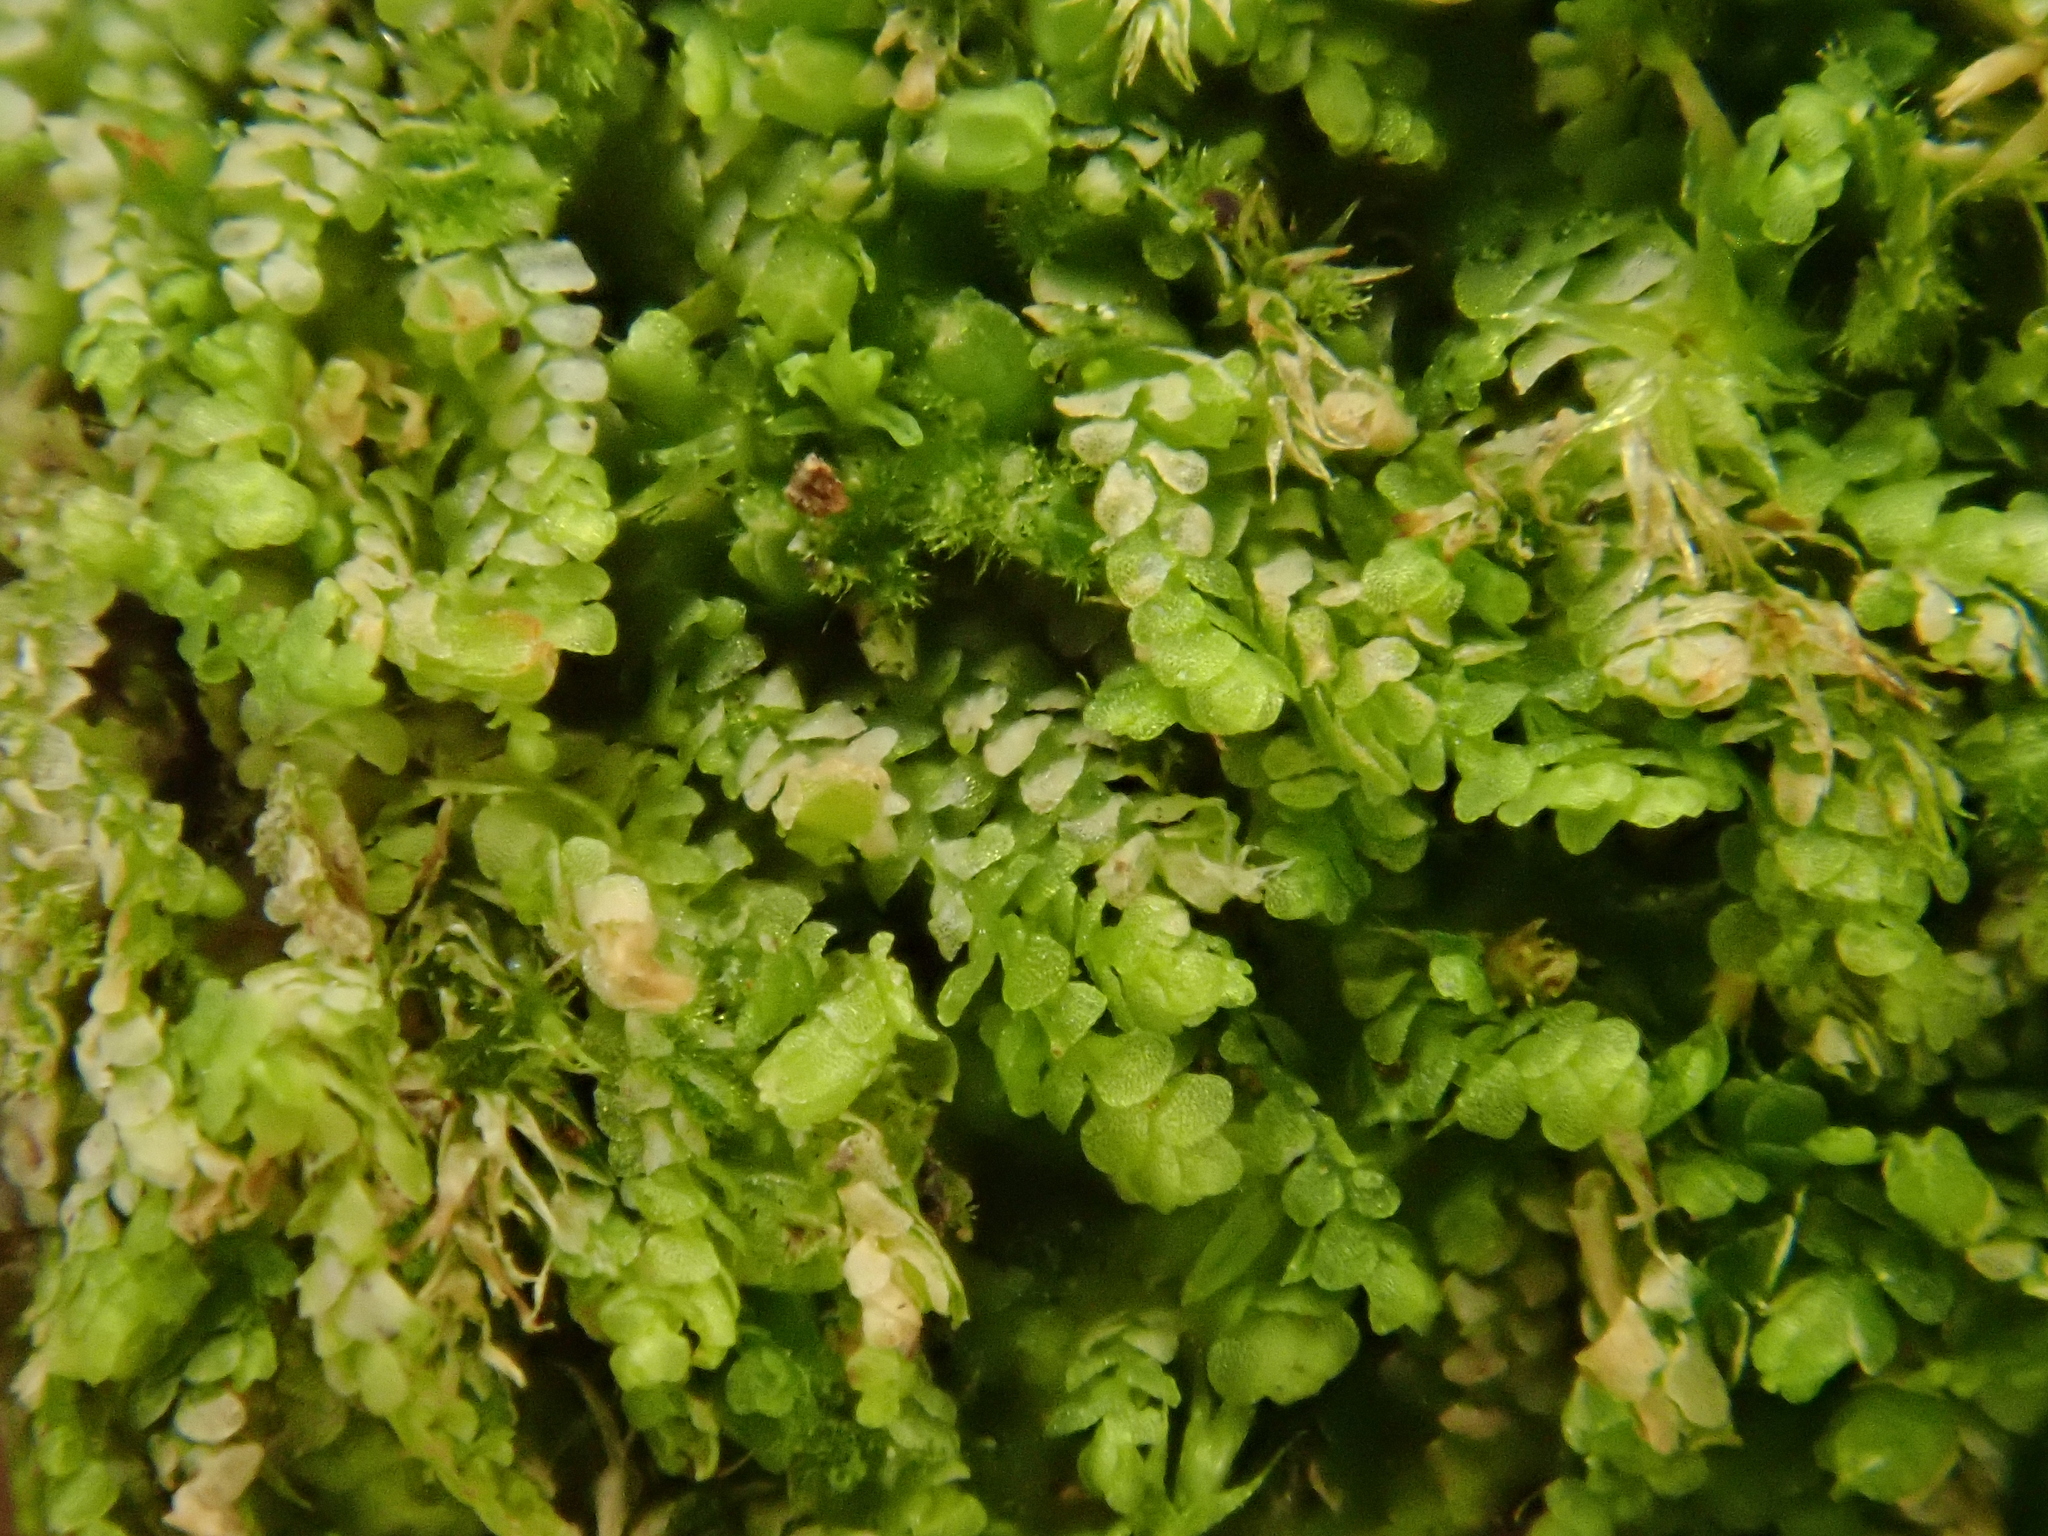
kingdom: Plantae
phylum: Marchantiophyta
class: Jungermanniopsida
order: Porellales
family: Lejeuneaceae
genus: Lejeunea
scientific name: Lejeunea cavifolia
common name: Least pouncewort
